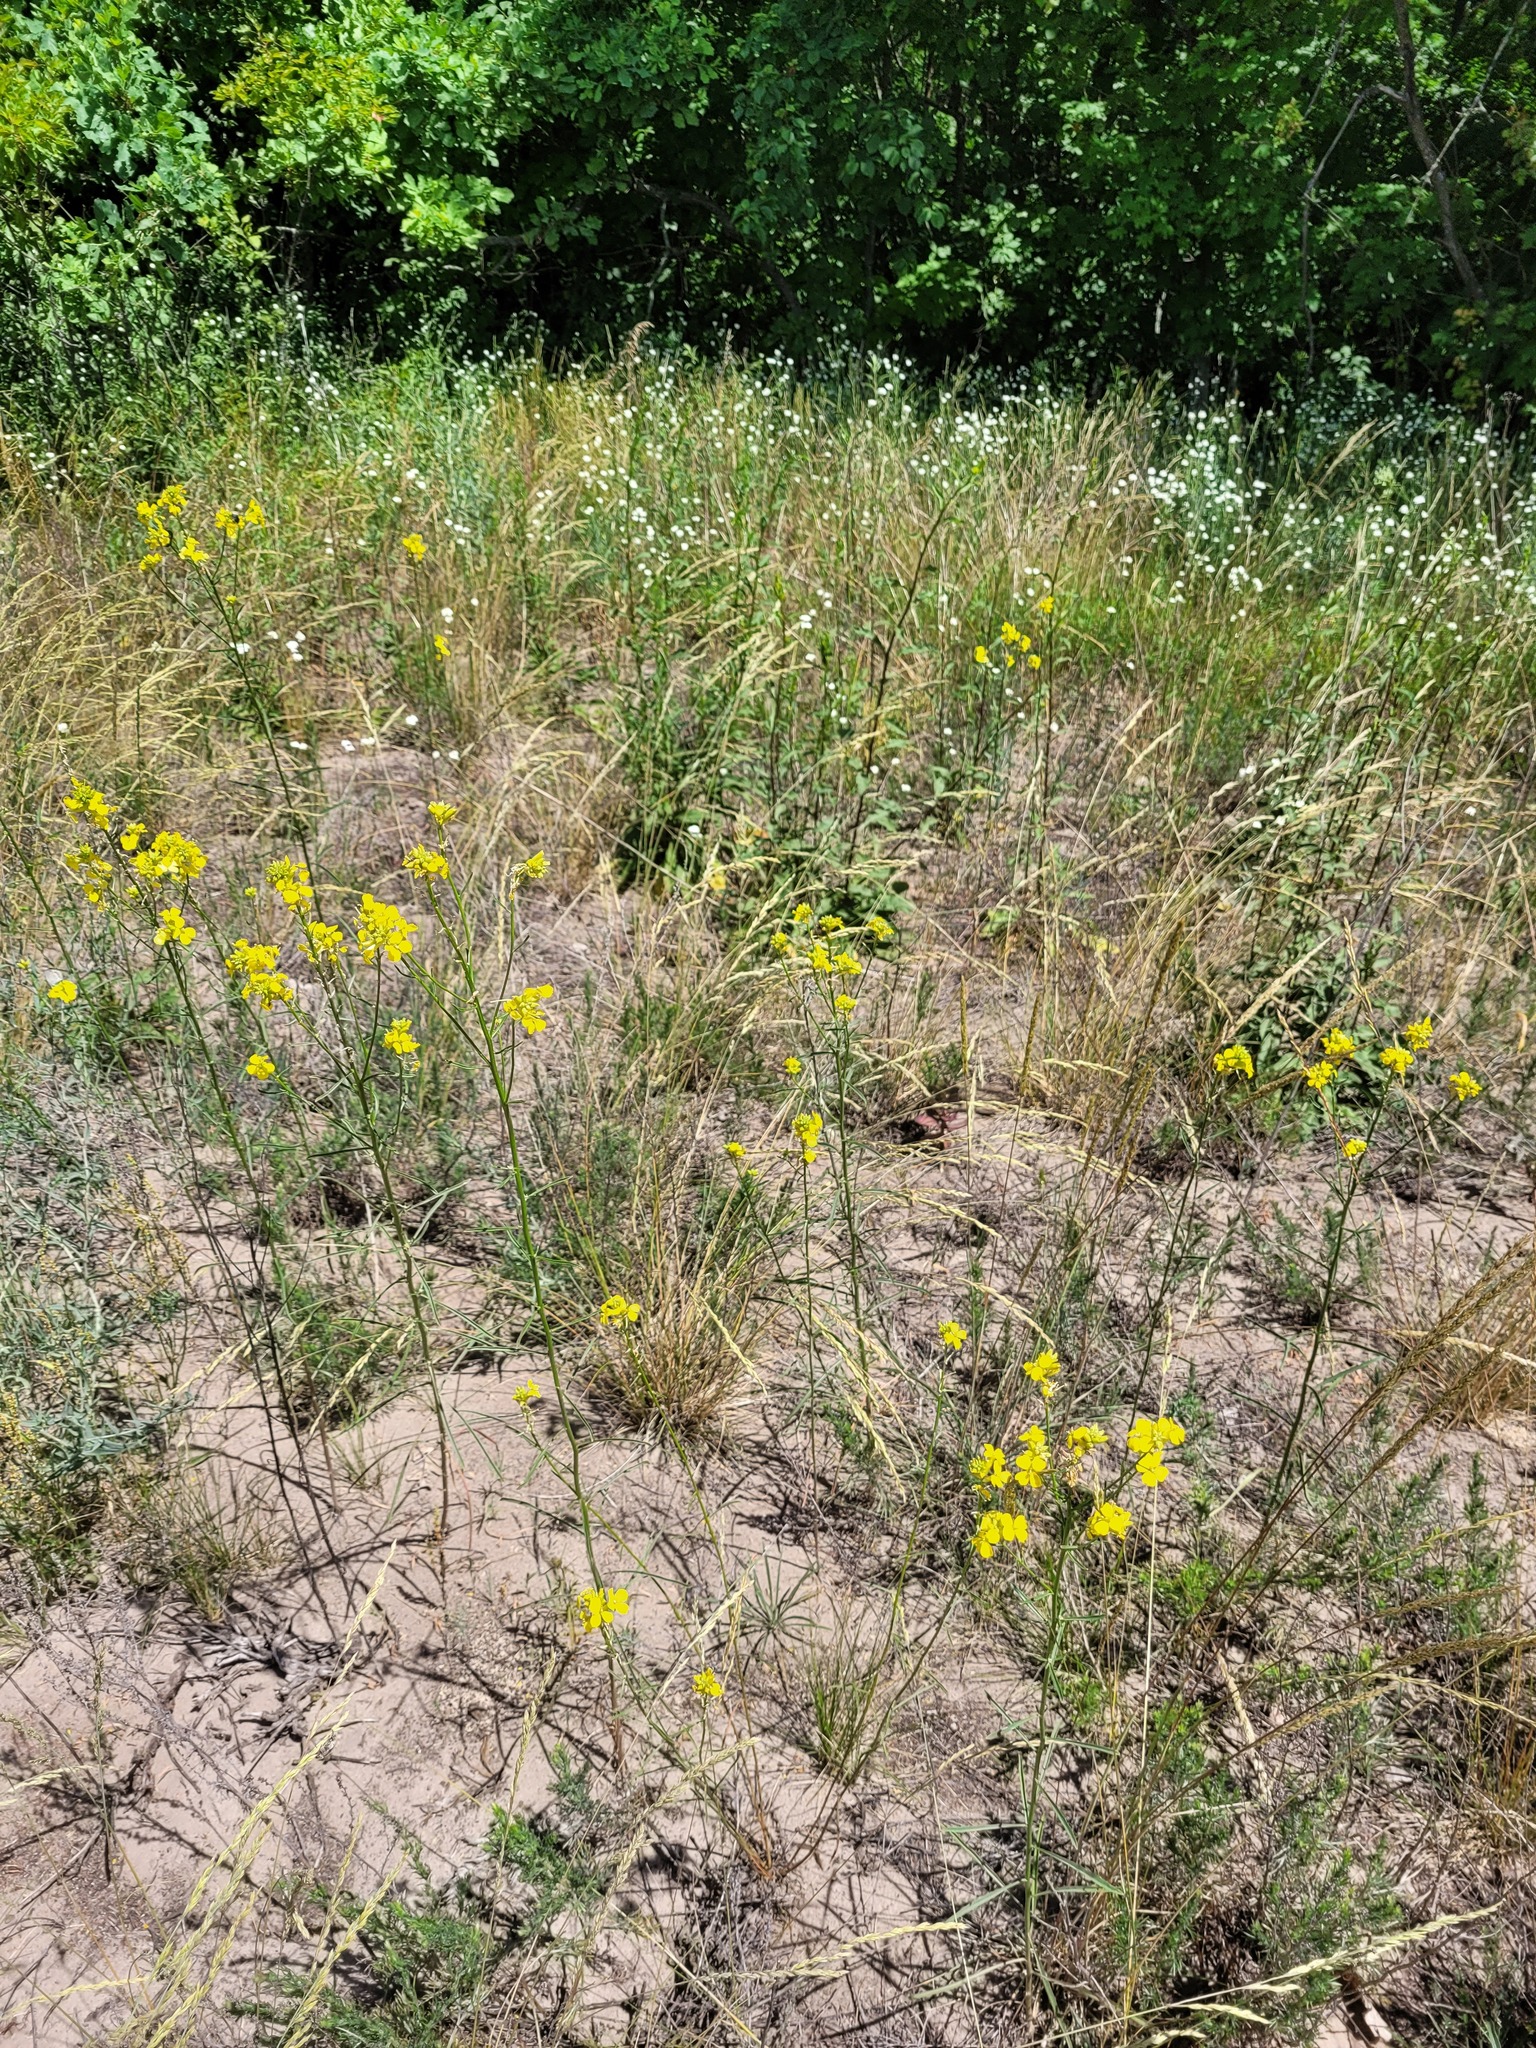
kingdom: Plantae
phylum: Tracheophyta
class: Magnoliopsida
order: Brassicales
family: Brassicaceae
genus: Erysimum
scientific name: Erysimum quadrangulum
